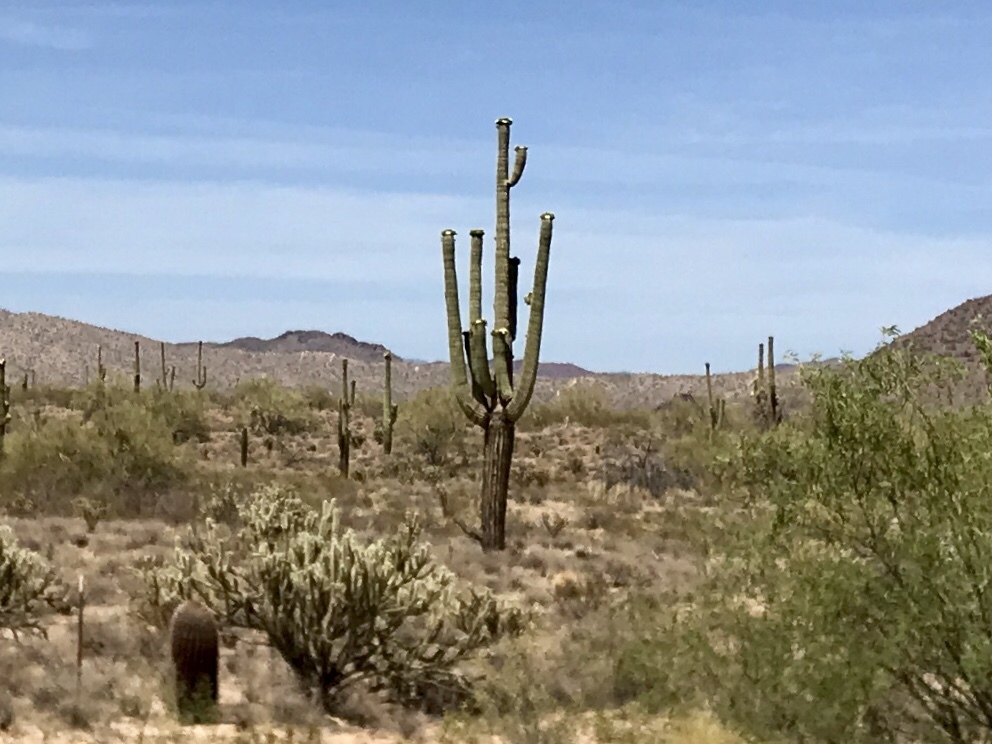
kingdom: Plantae
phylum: Tracheophyta
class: Magnoliopsida
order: Caryophyllales
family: Cactaceae
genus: Carnegiea
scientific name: Carnegiea gigantea
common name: Saguaro
